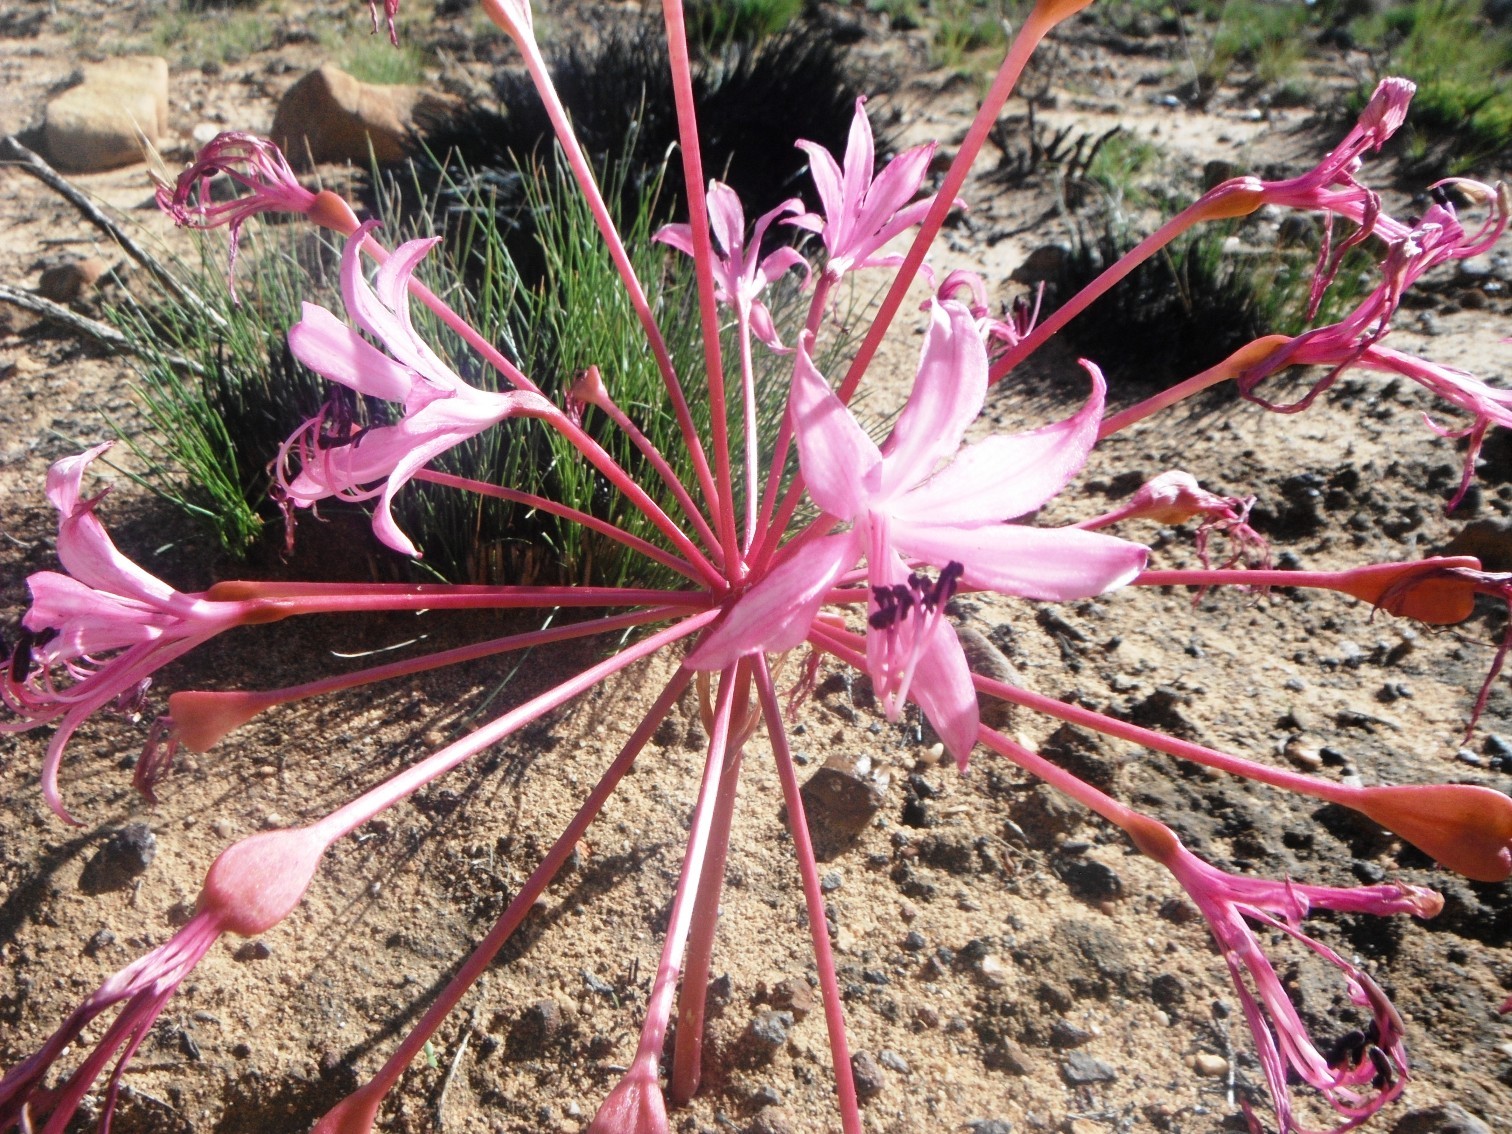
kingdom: Plantae
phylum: Tracheophyta
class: Liliopsida
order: Asparagales
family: Amaryllidaceae
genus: Brunsvigia
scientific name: Brunsvigia nervosa
